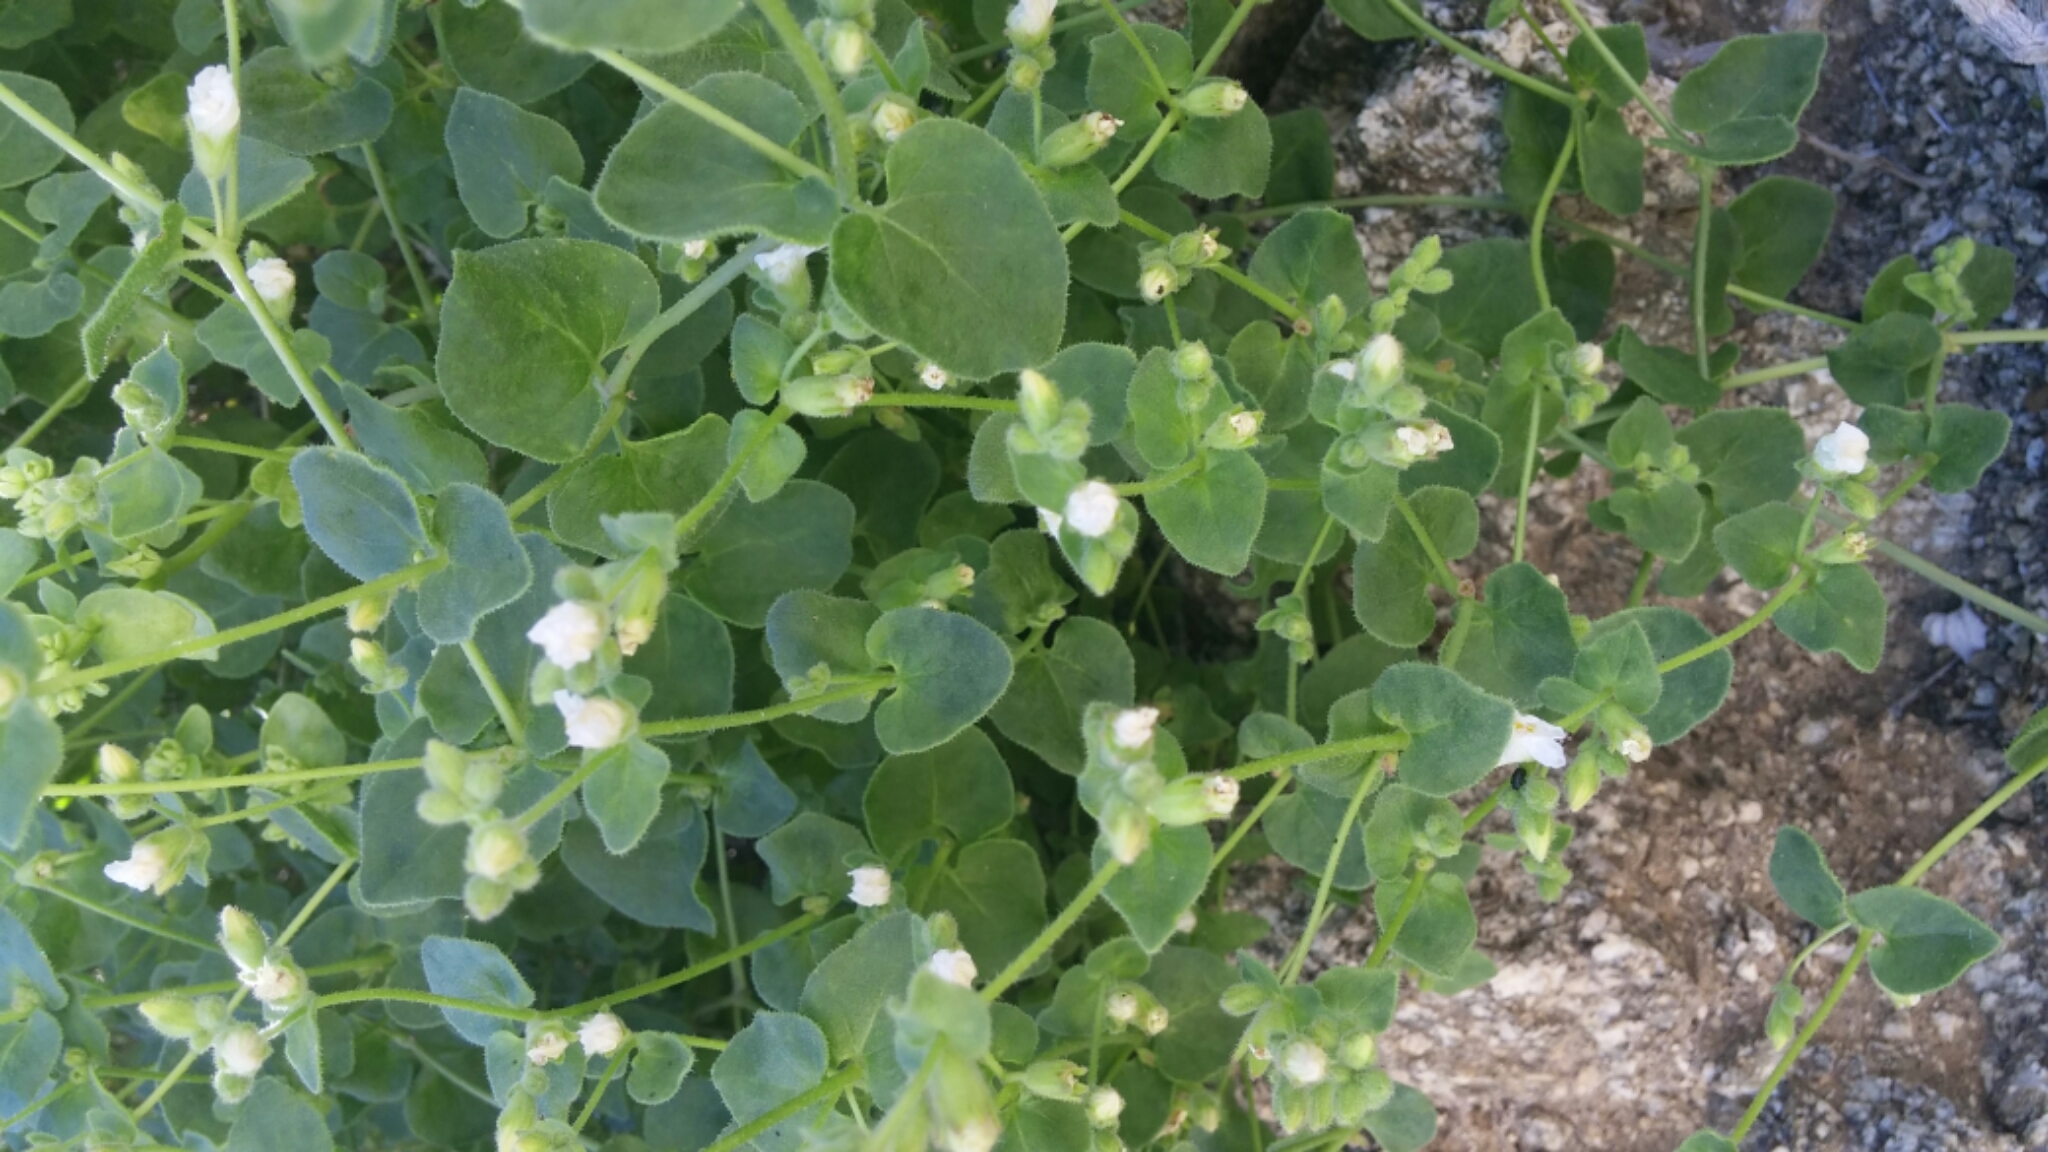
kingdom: Plantae
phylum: Tracheophyta
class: Magnoliopsida
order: Caryophyllales
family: Nyctaginaceae
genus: Mirabilis
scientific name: Mirabilis laevis
